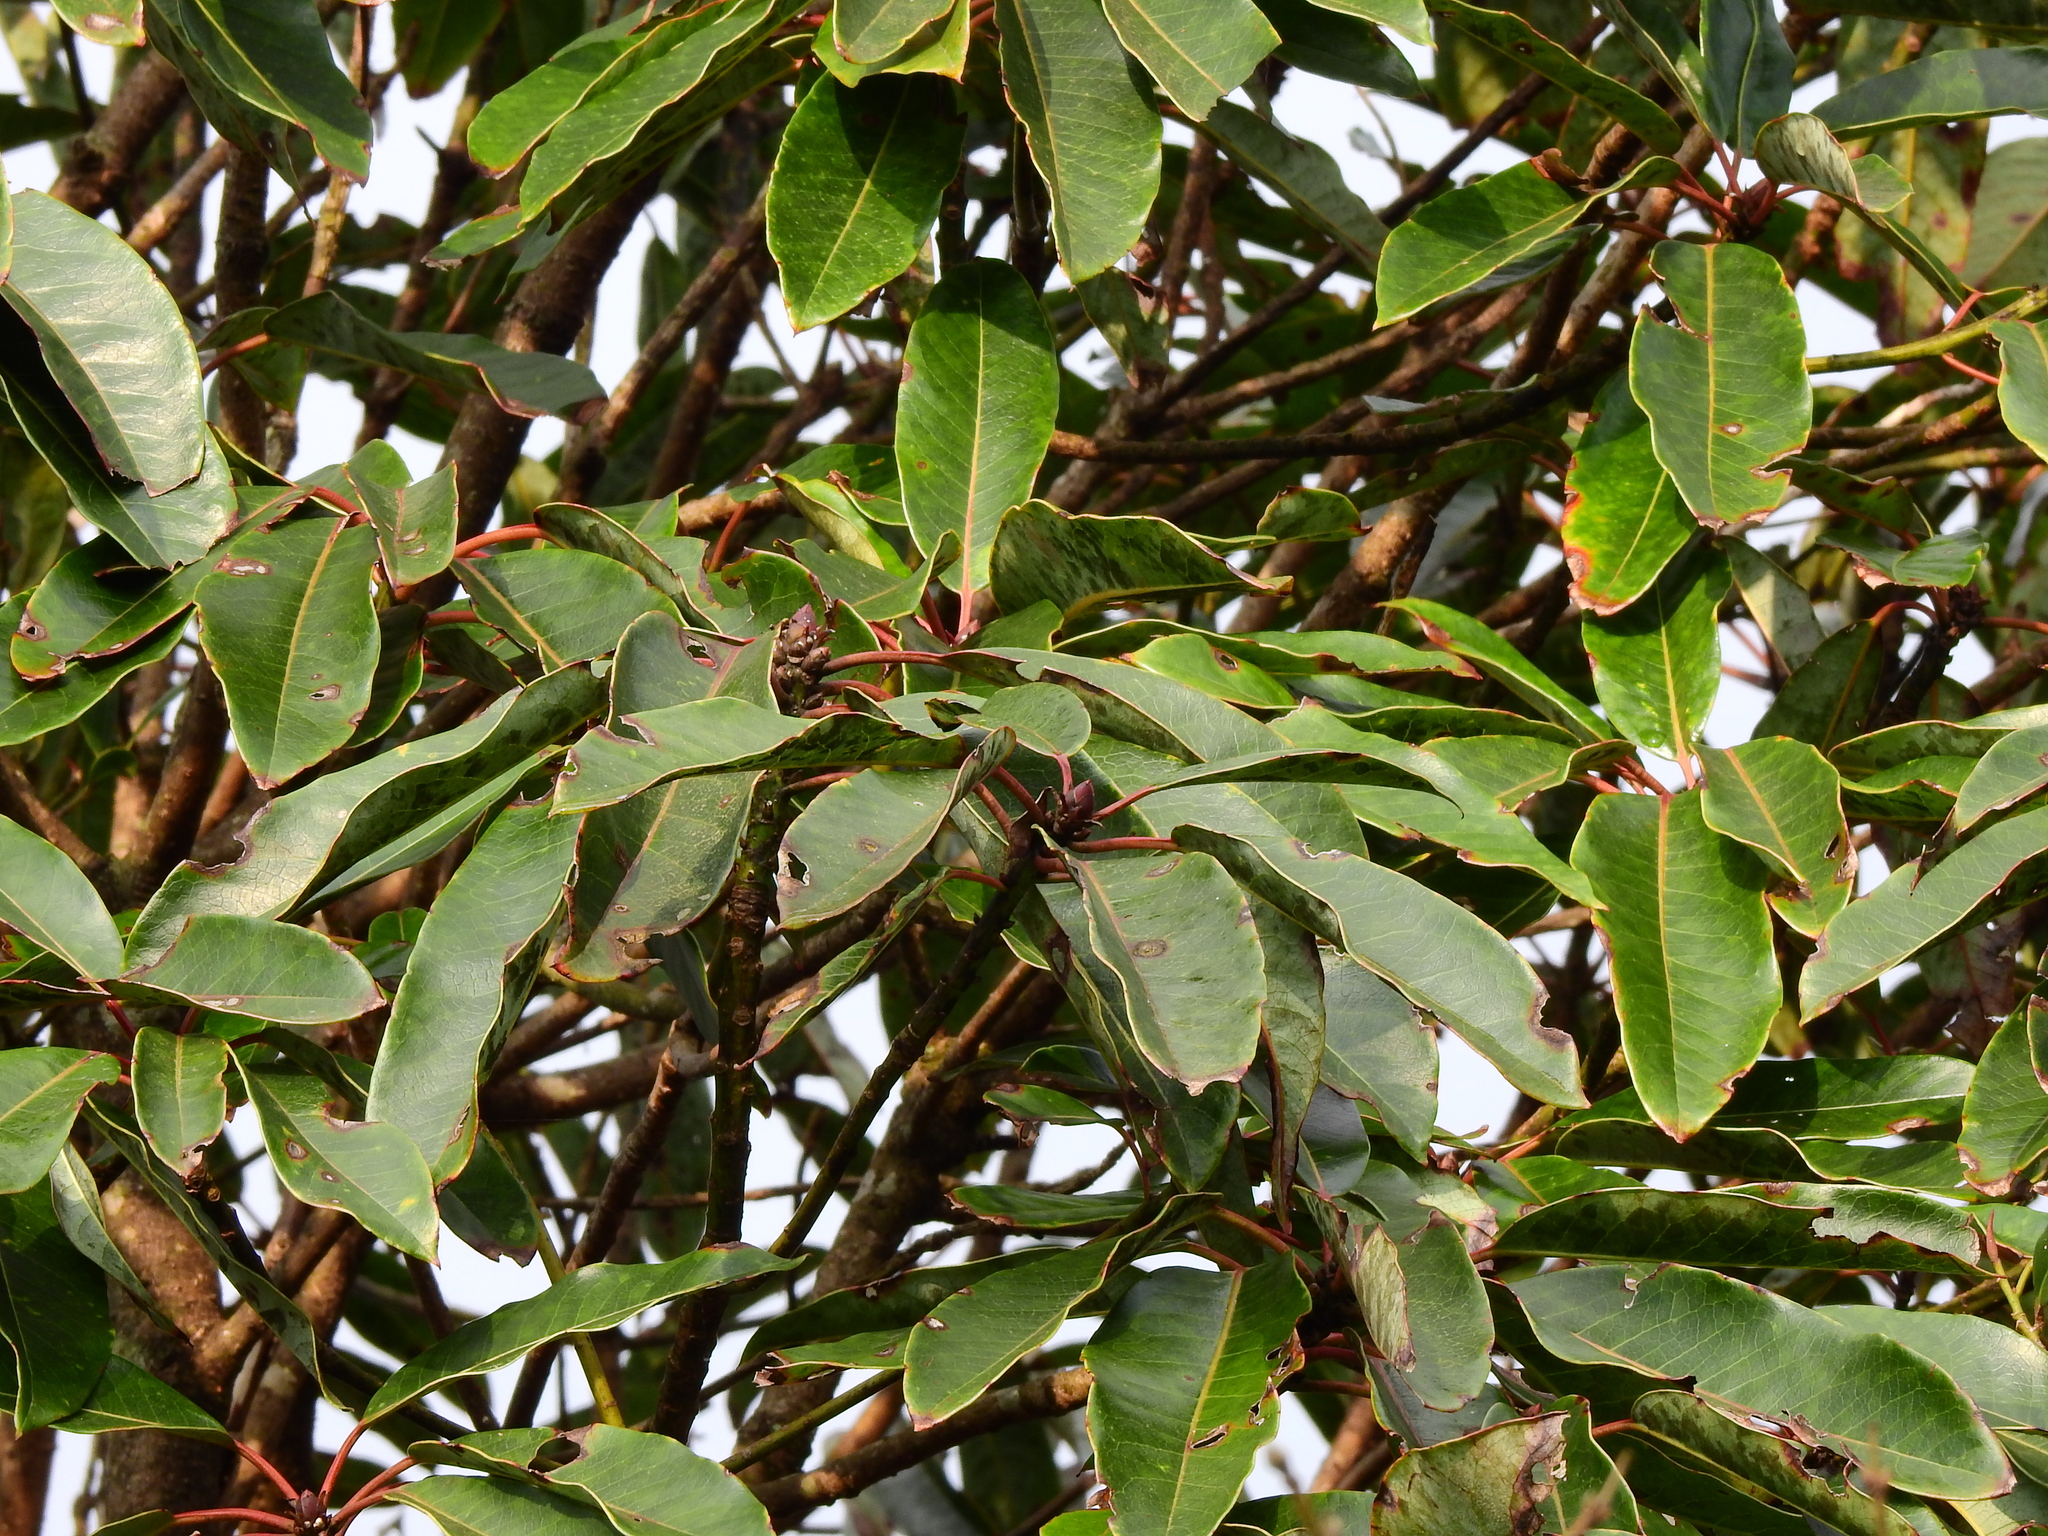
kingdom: Plantae
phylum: Tracheophyta
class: Magnoliopsida
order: Saxifragales
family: Daphniphyllaceae
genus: Daphniphyllum
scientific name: Daphniphyllum
